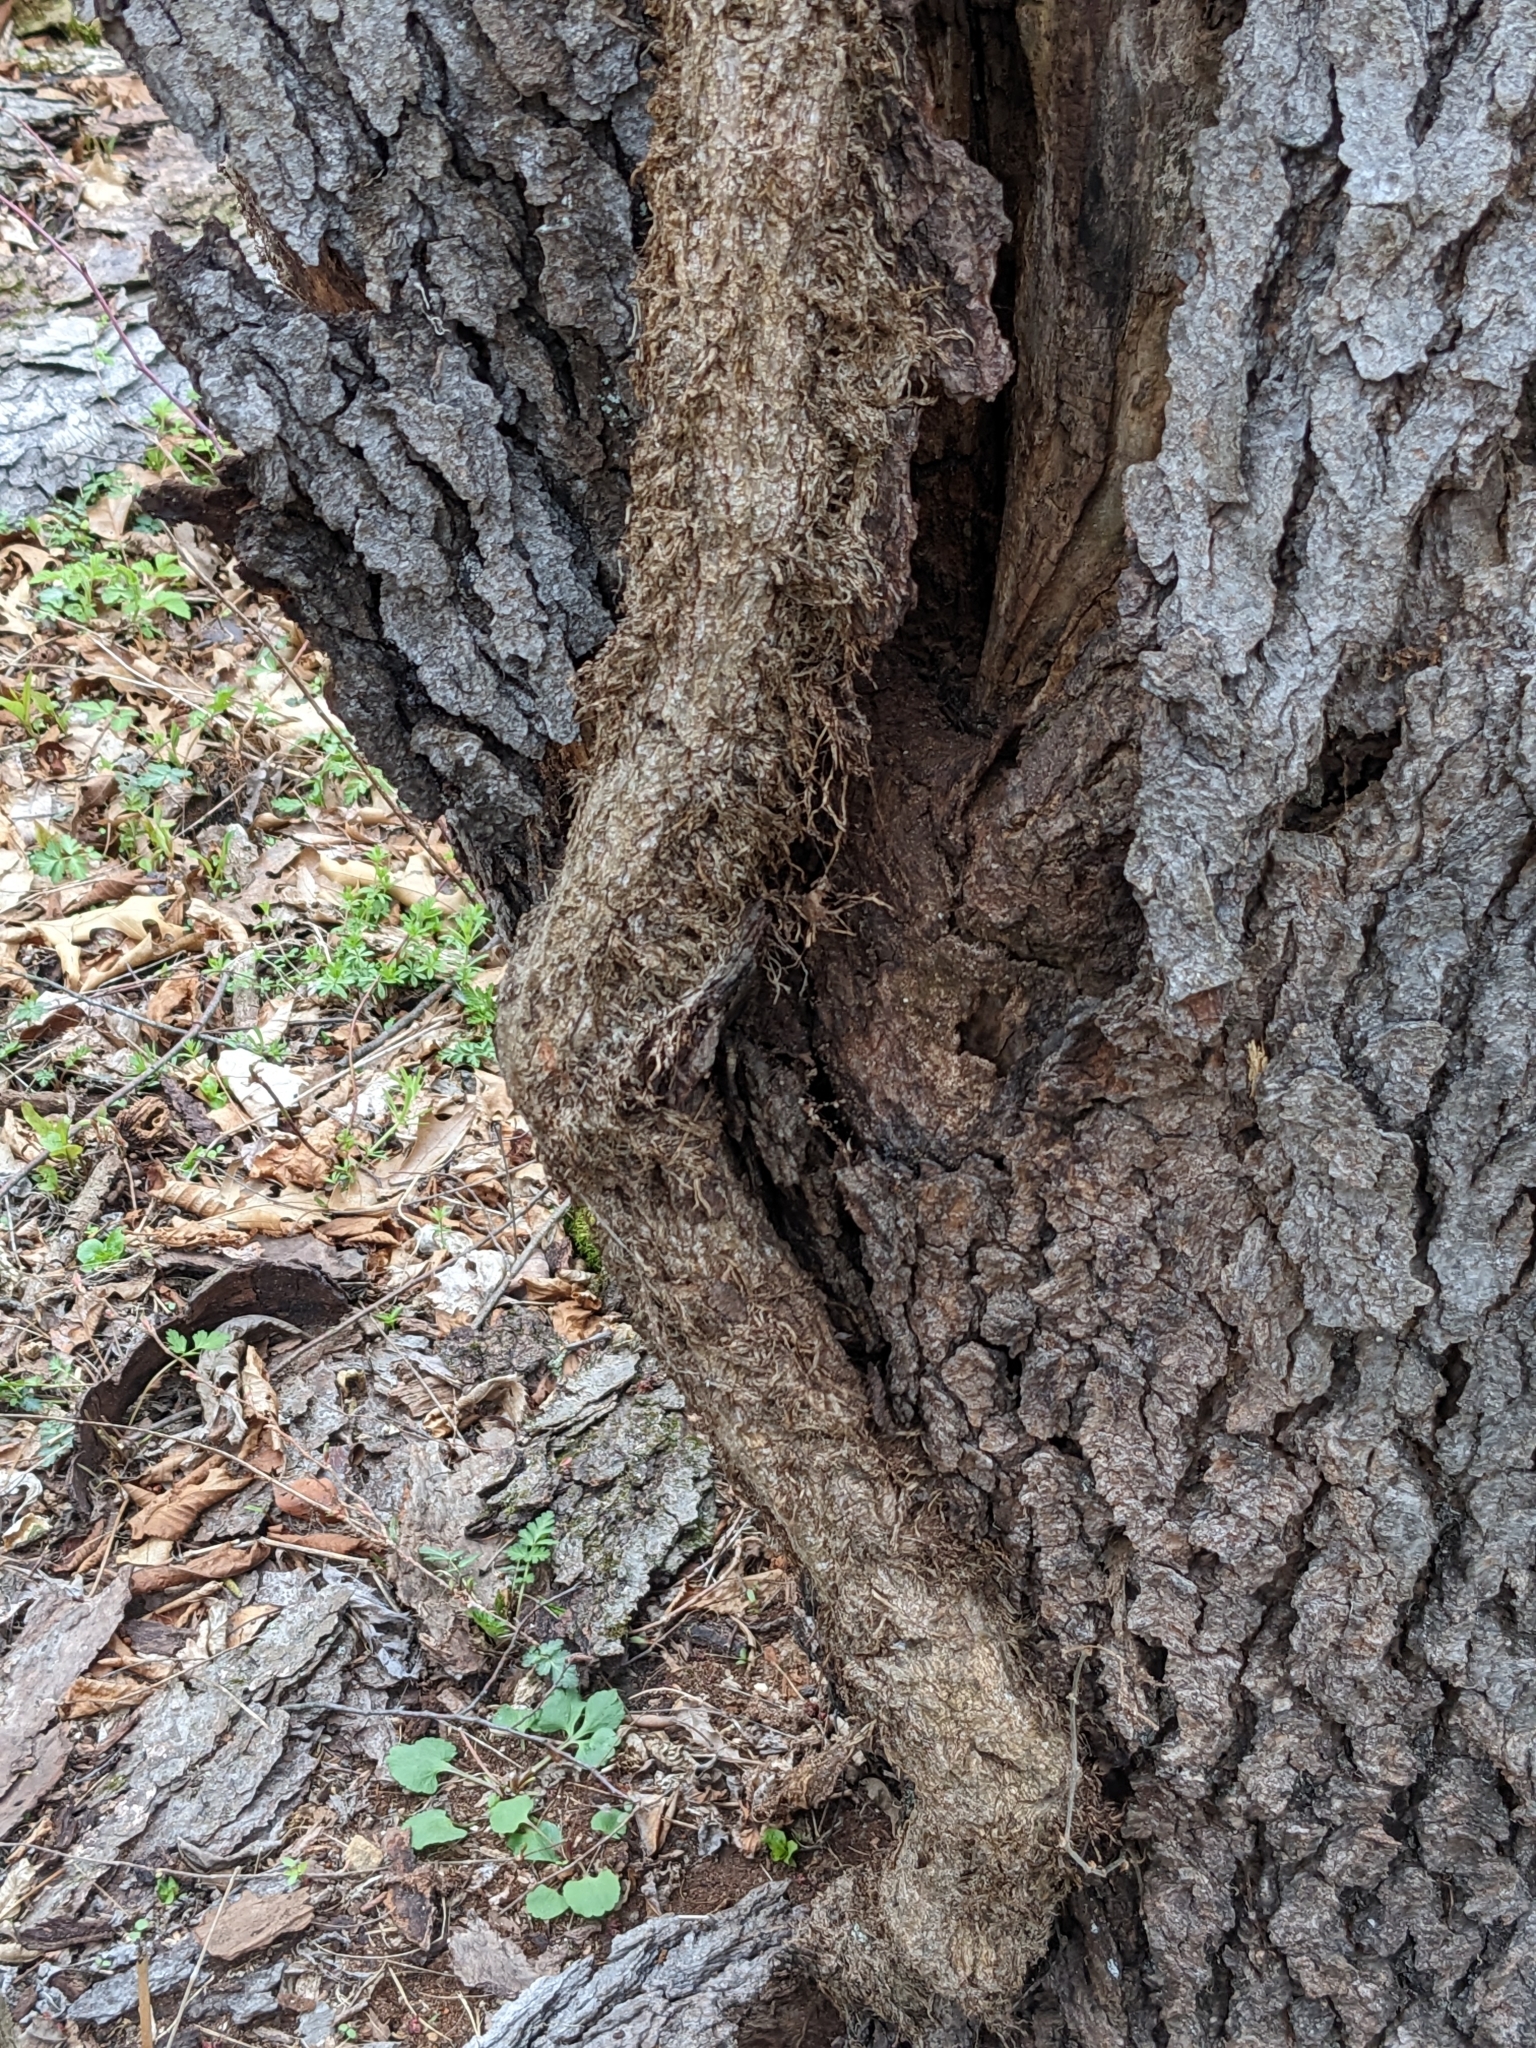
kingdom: Plantae
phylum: Tracheophyta
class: Magnoliopsida
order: Sapindales
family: Anacardiaceae
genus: Toxicodendron
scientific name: Toxicodendron radicans
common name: Poison ivy
